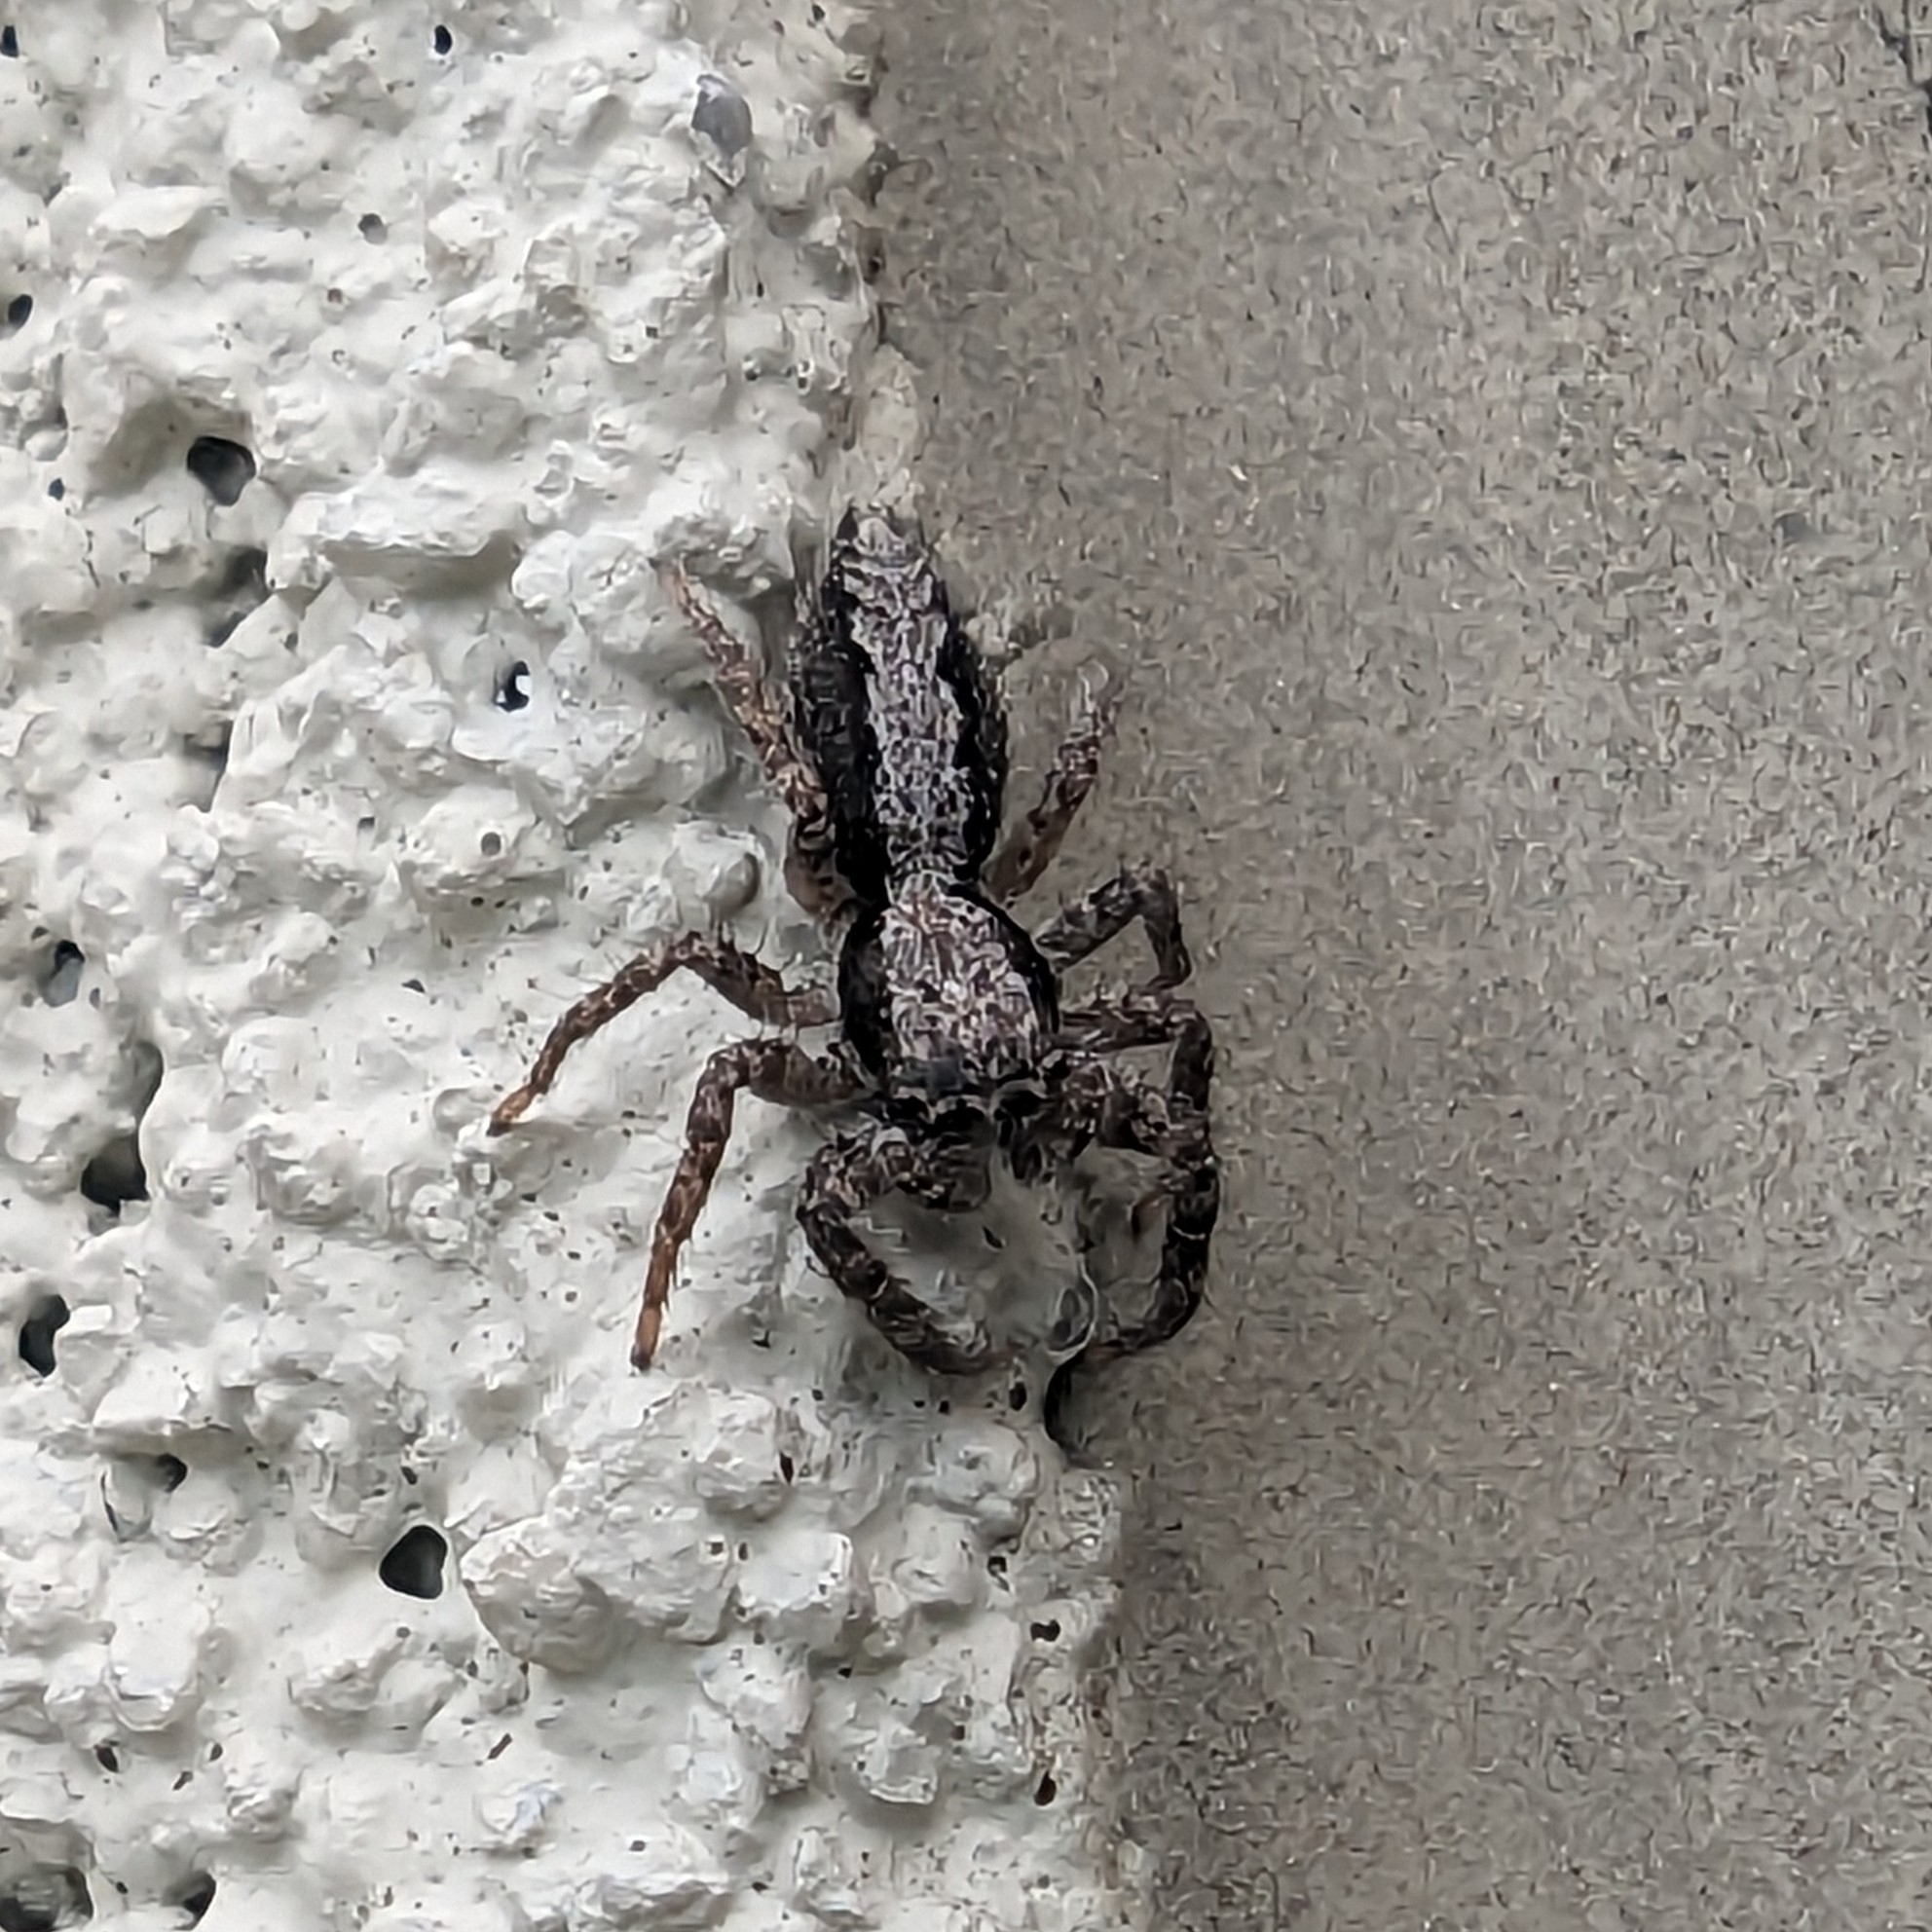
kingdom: Animalia
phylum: Arthropoda
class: Arachnida
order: Araneae
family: Salticidae
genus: Platycryptus
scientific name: Platycryptus californicus
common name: Jumping spiders
